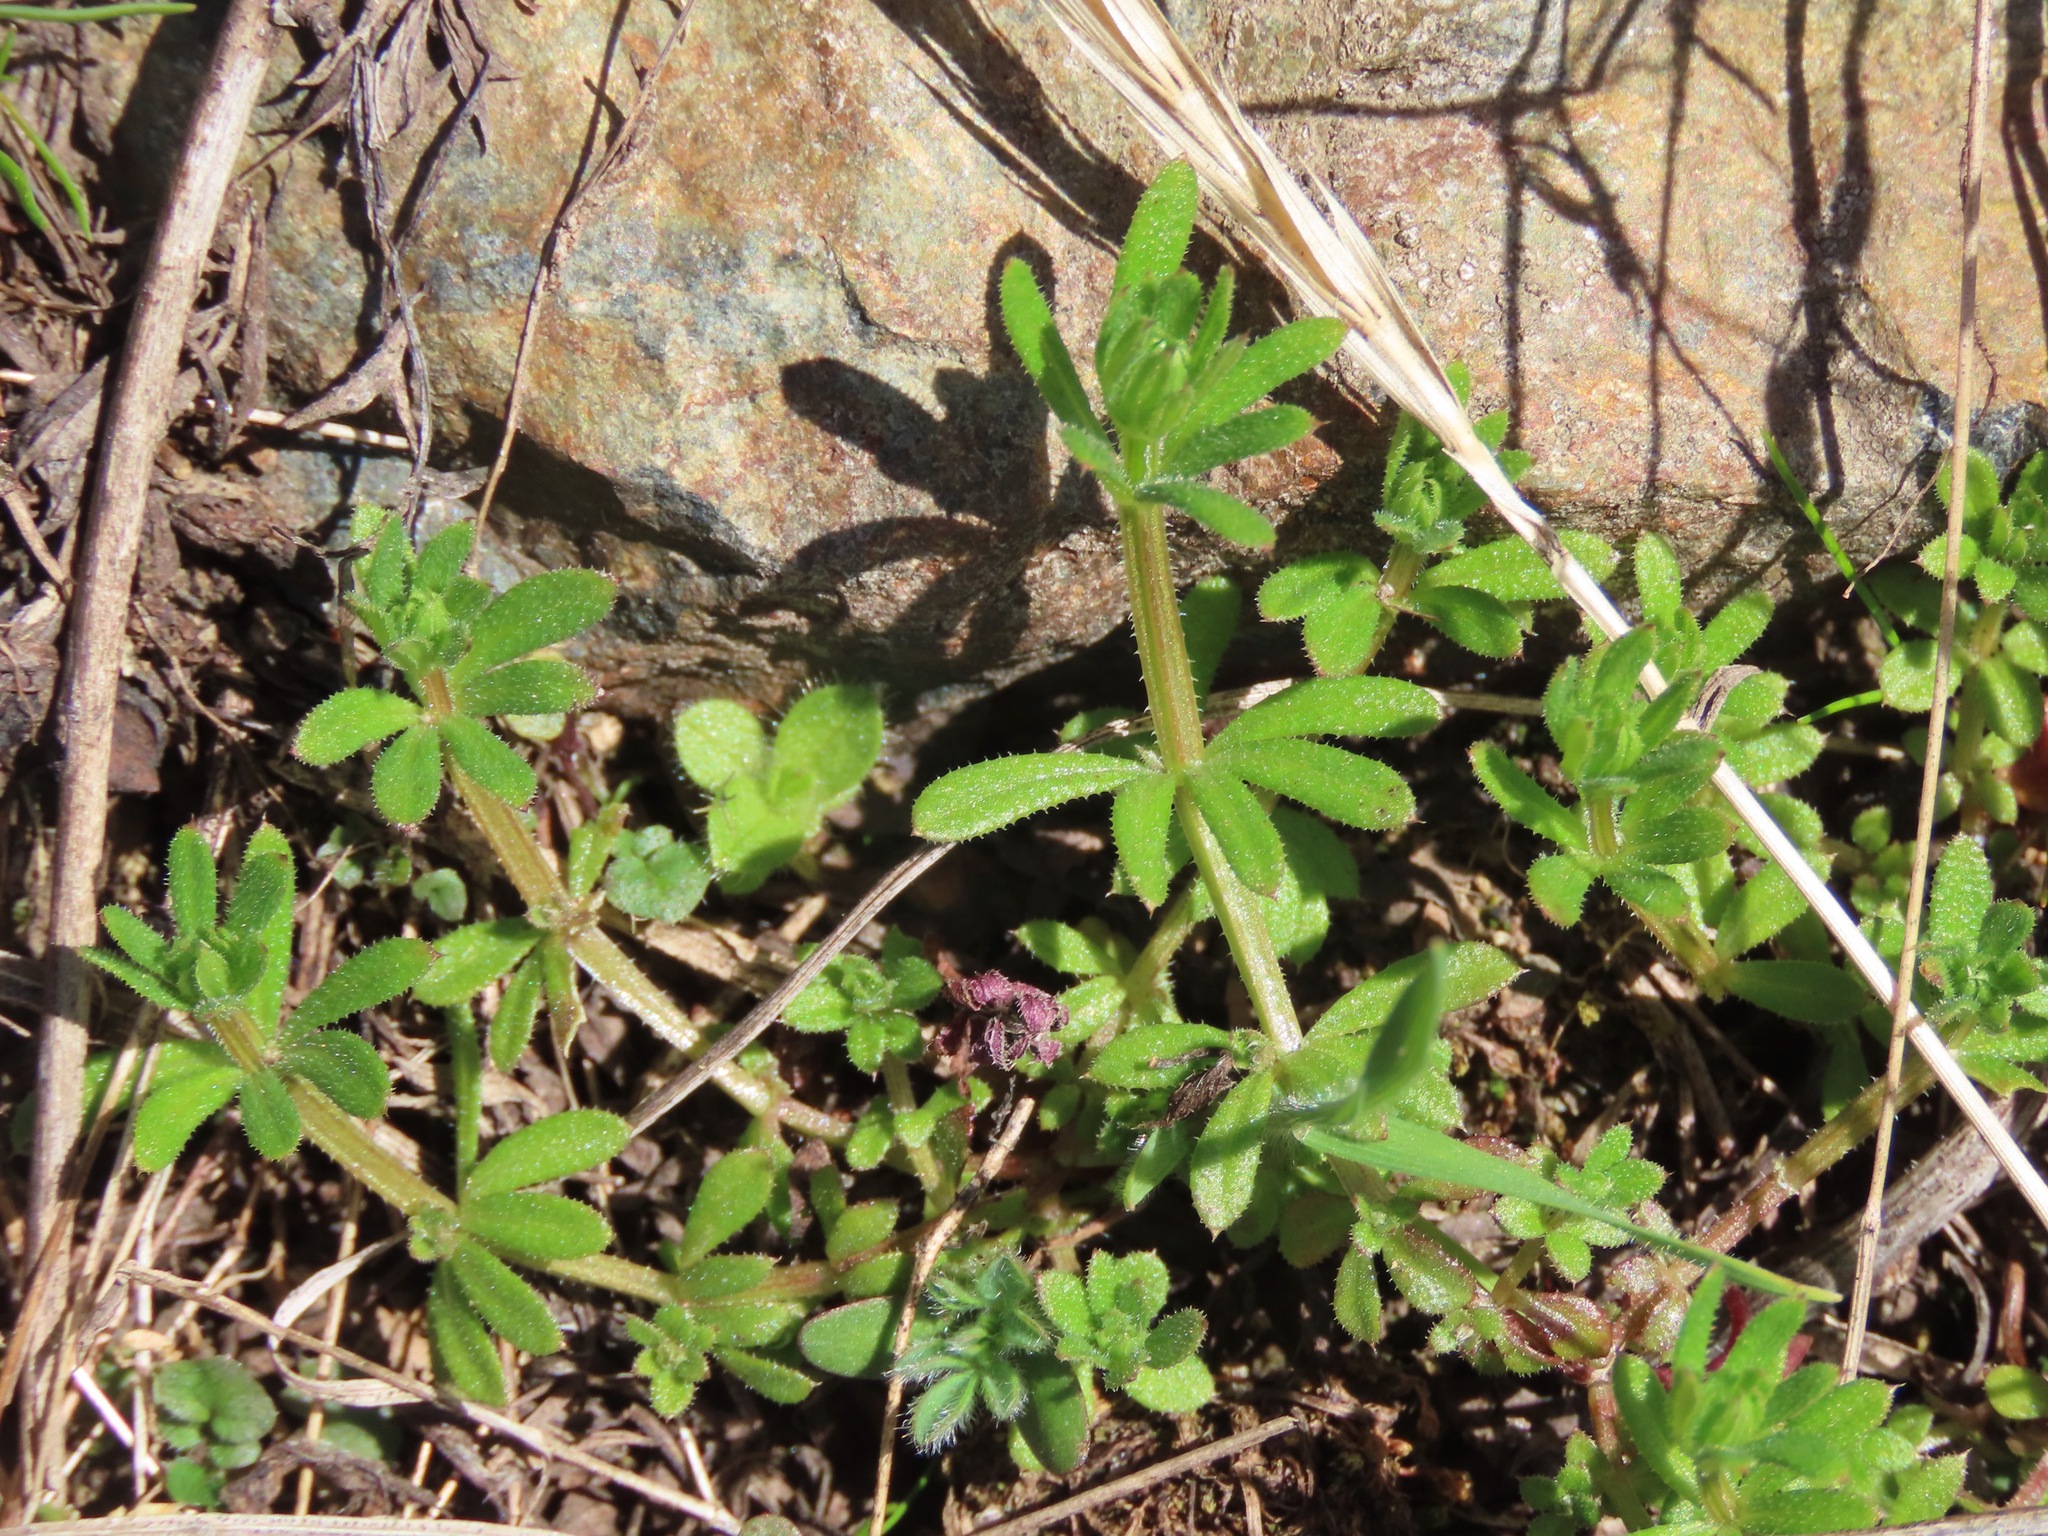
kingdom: Plantae
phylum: Tracheophyta
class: Magnoliopsida
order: Gentianales
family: Rubiaceae
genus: Galium
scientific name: Galium aparine
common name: Cleavers
